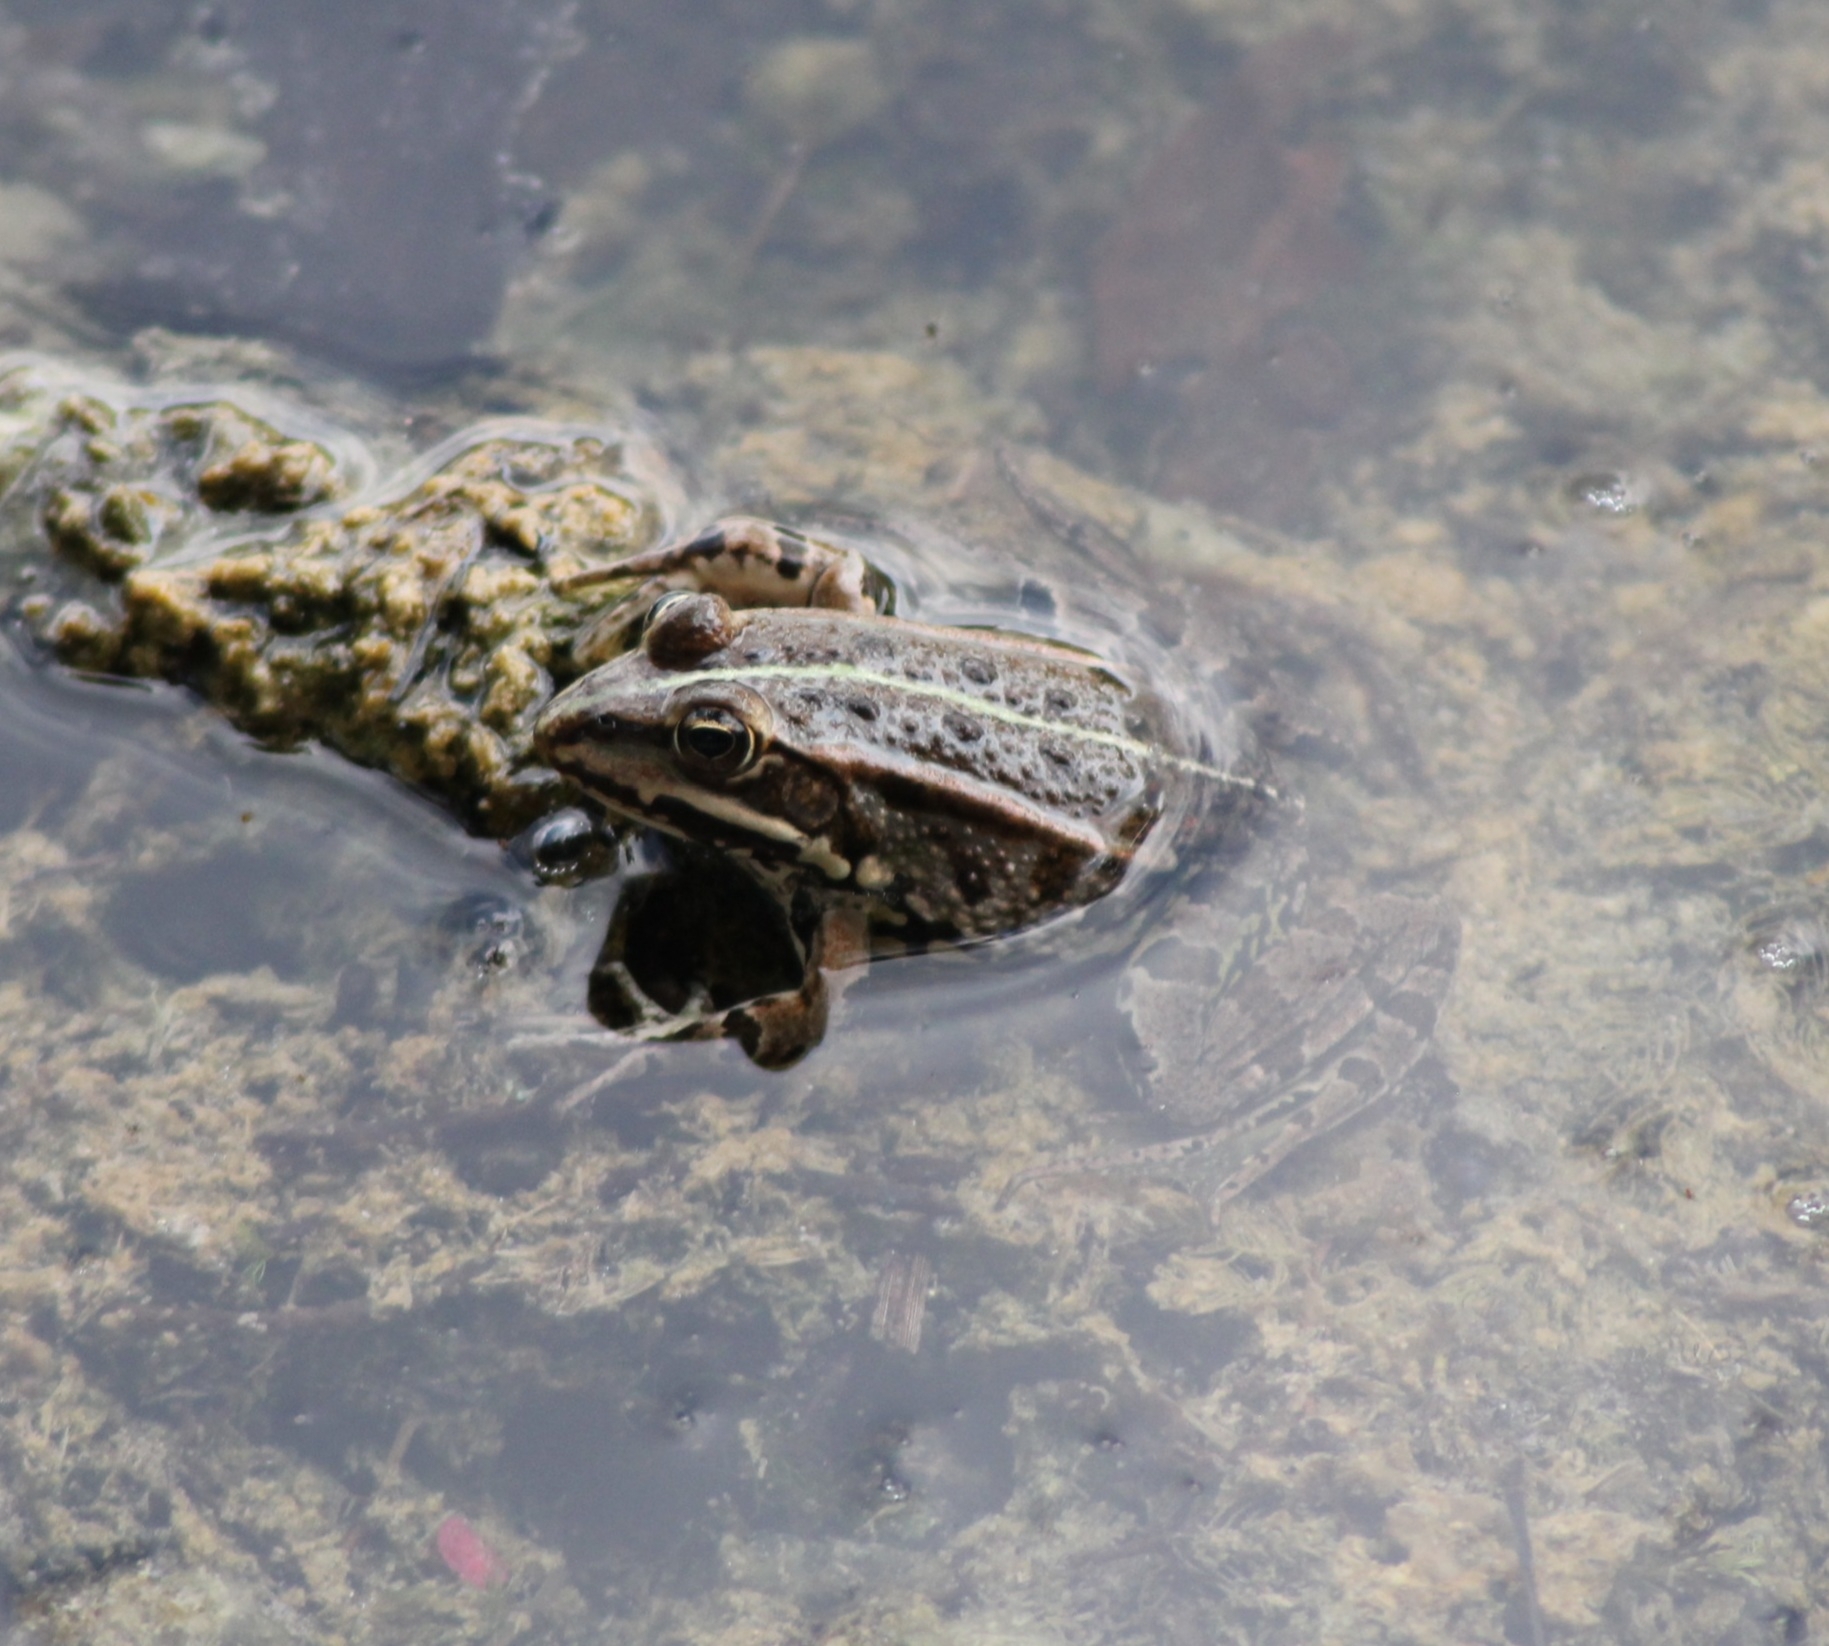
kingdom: Animalia
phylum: Chordata
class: Amphibia
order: Anura
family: Ranidae
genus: Pelophylax
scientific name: Pelophylax
